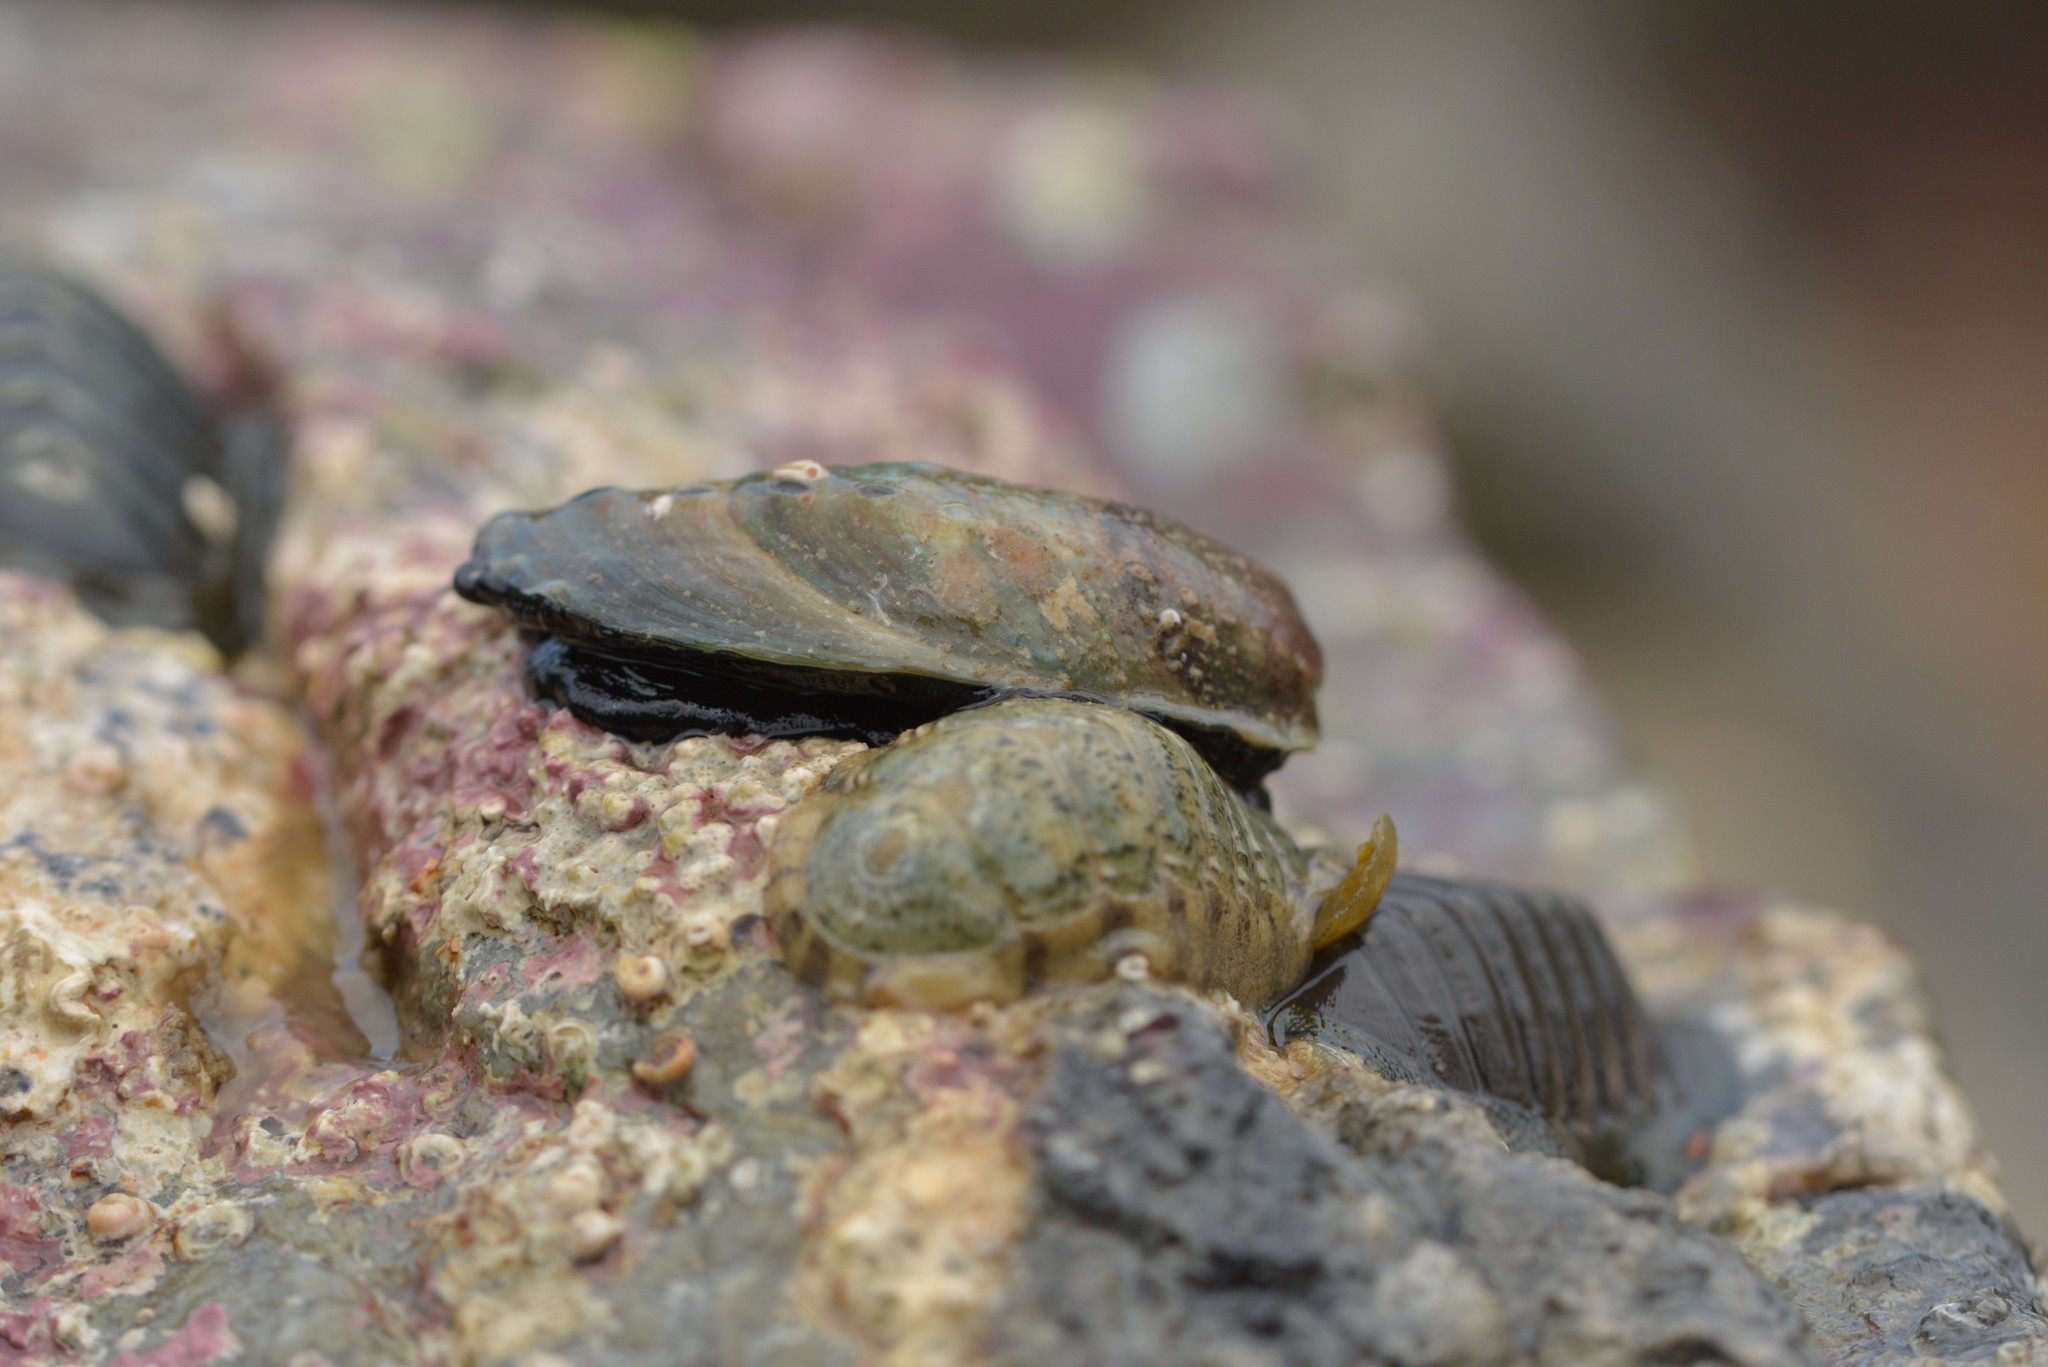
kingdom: Animalia
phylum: Mollusca
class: Gastropoda
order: Lepetellida
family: Haliotidae
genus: Haliotis
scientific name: Haliotis iris
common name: Abalone
